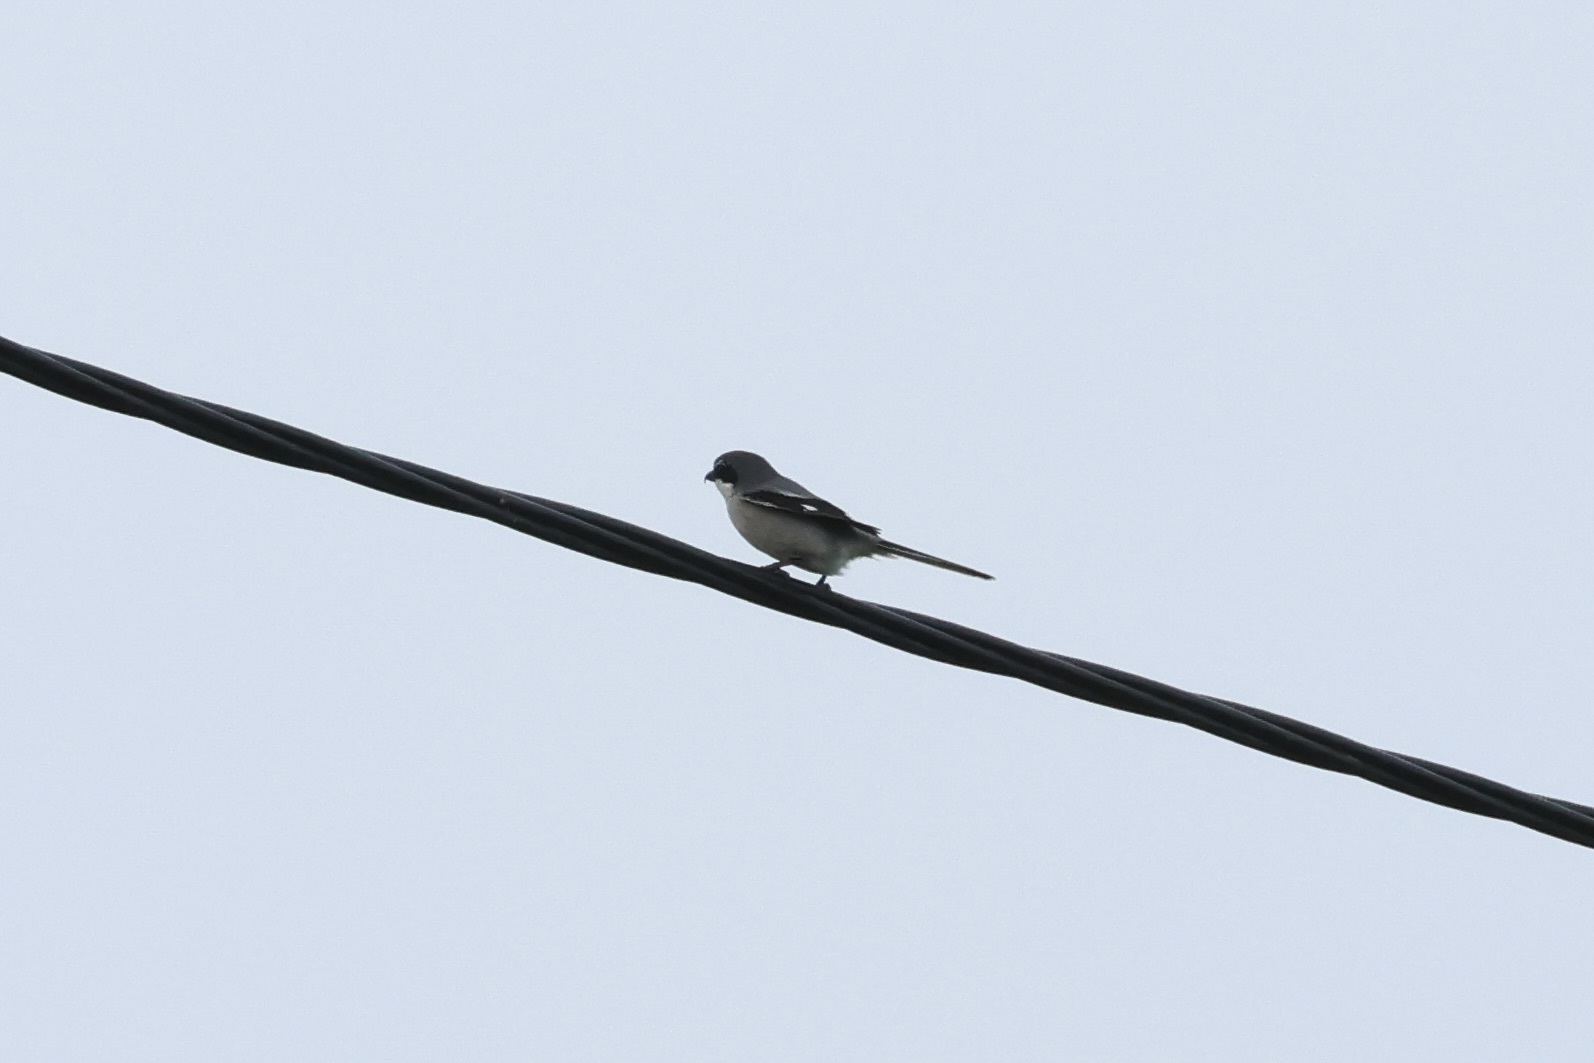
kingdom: Animalia
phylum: Chordata
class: Aves
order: Passeriformes
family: Laniidae
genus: Lanius
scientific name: Lanius meridionalis
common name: Iberian grey shrike
